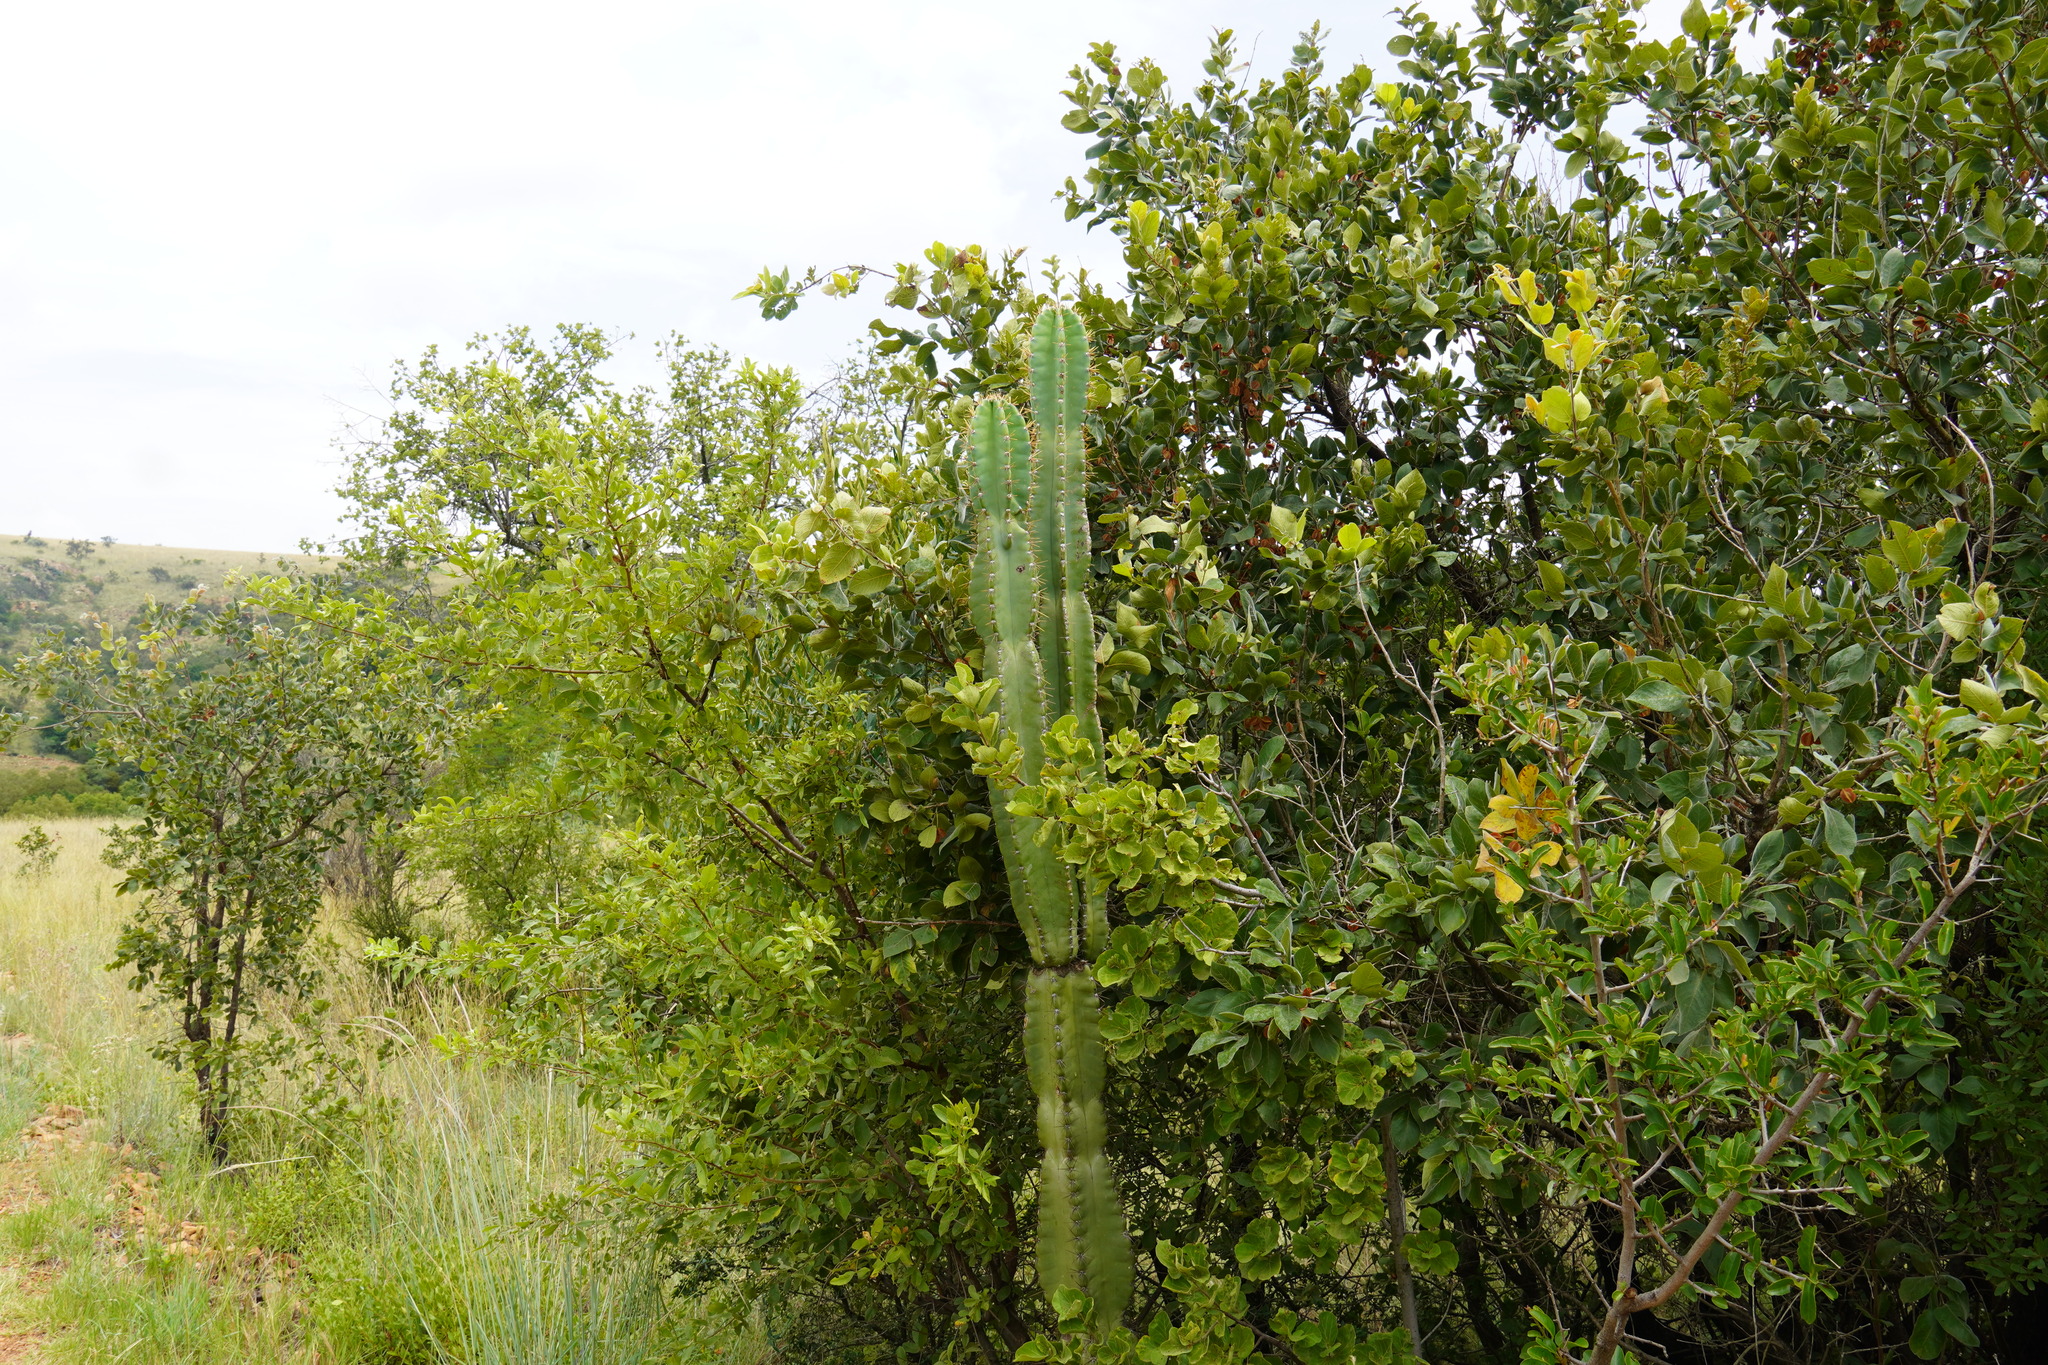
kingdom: Plantae
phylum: Tracheophyta
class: Magnoliopsida
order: Caryophyllales
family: Cactaceae
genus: Cereus
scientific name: Cereus jamacaru
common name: Queen-of-the-night
